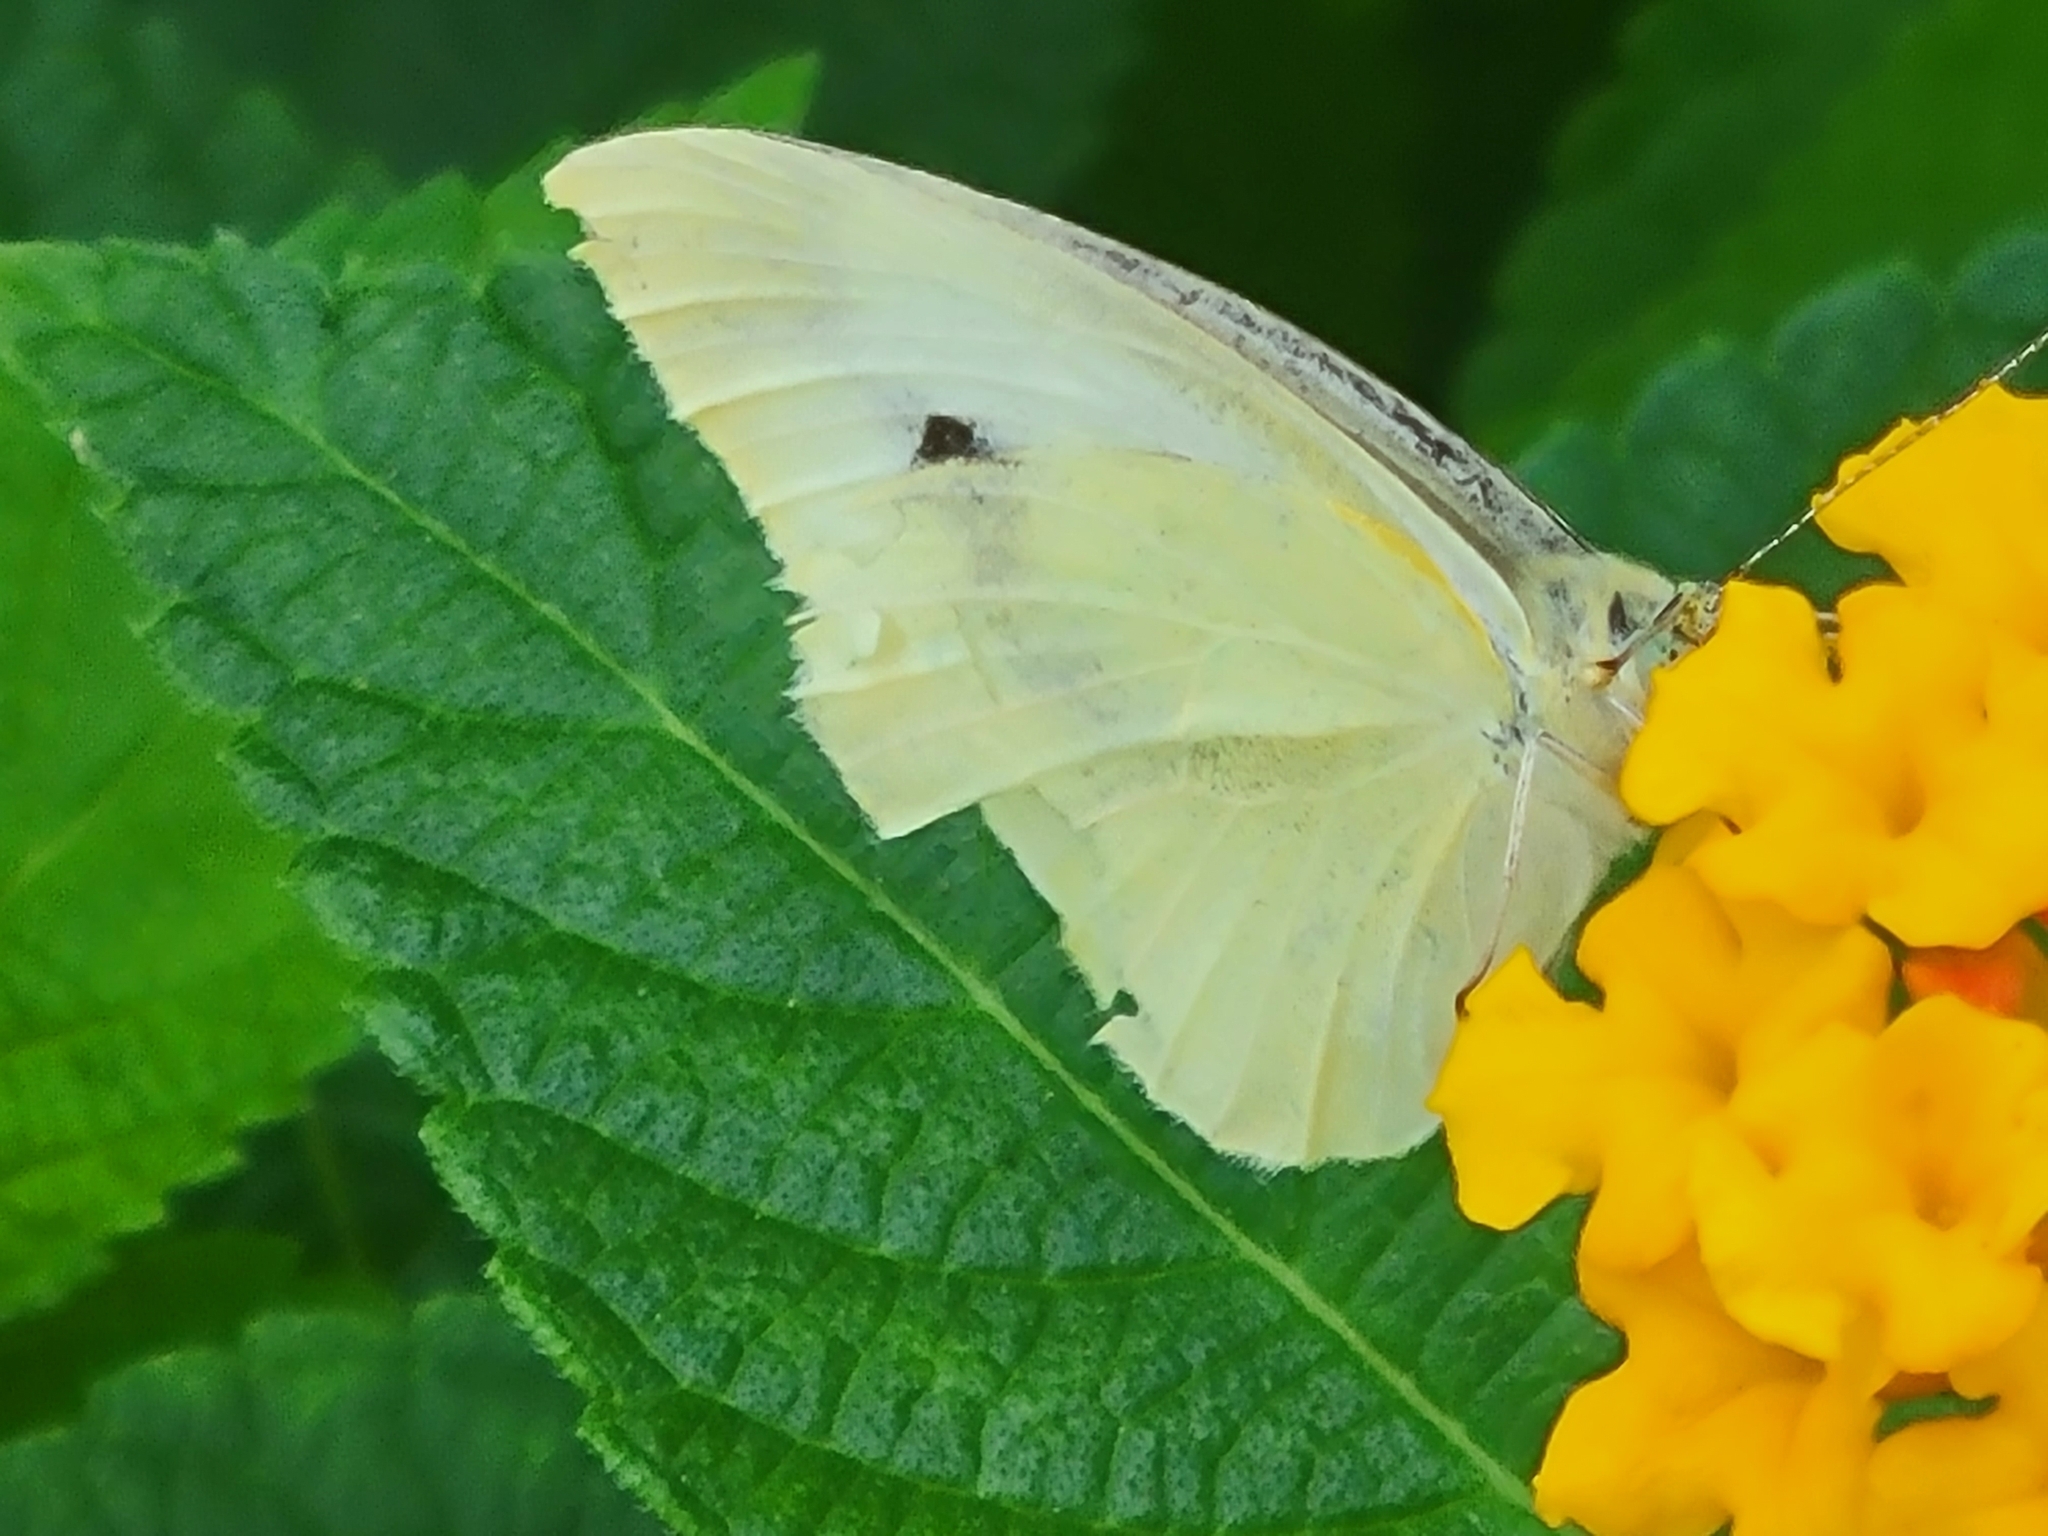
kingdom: Animalia
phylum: Arthropoda
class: Insecta
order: Lepidoptera
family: Pieridae
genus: Pieris
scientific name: Pieris rapae
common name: Small white
